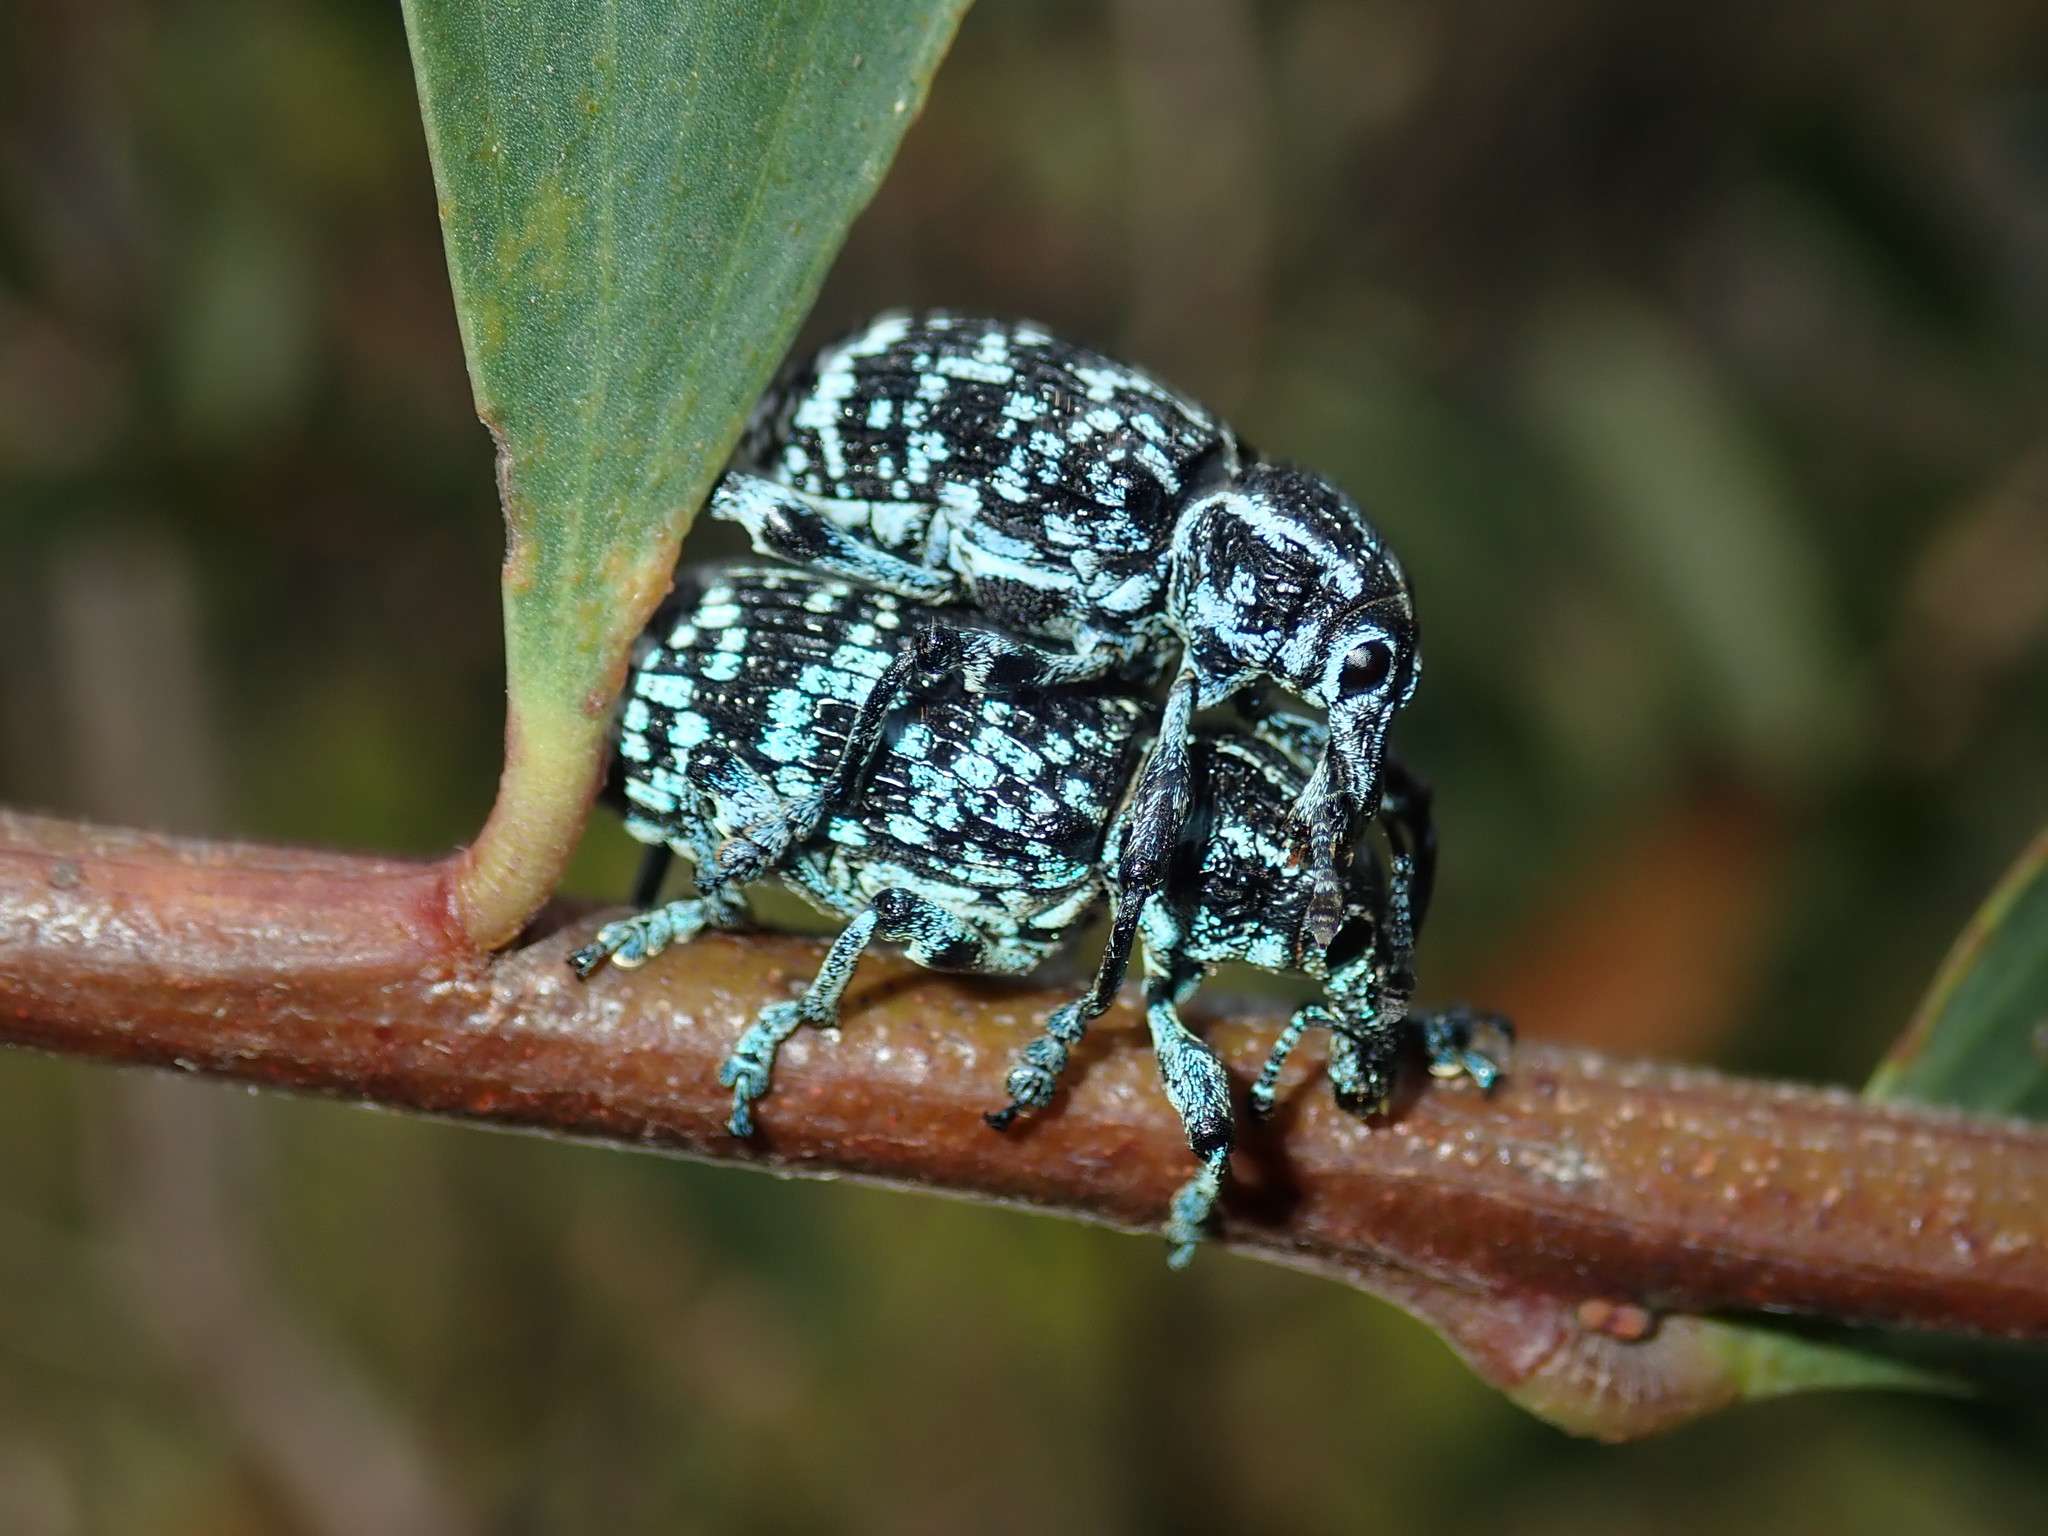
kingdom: Animalia
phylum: Arthropoda
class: Insecta
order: Coleoptera
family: Curculionidae
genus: Chrysolopus
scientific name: Chrysolopus spectabilis
